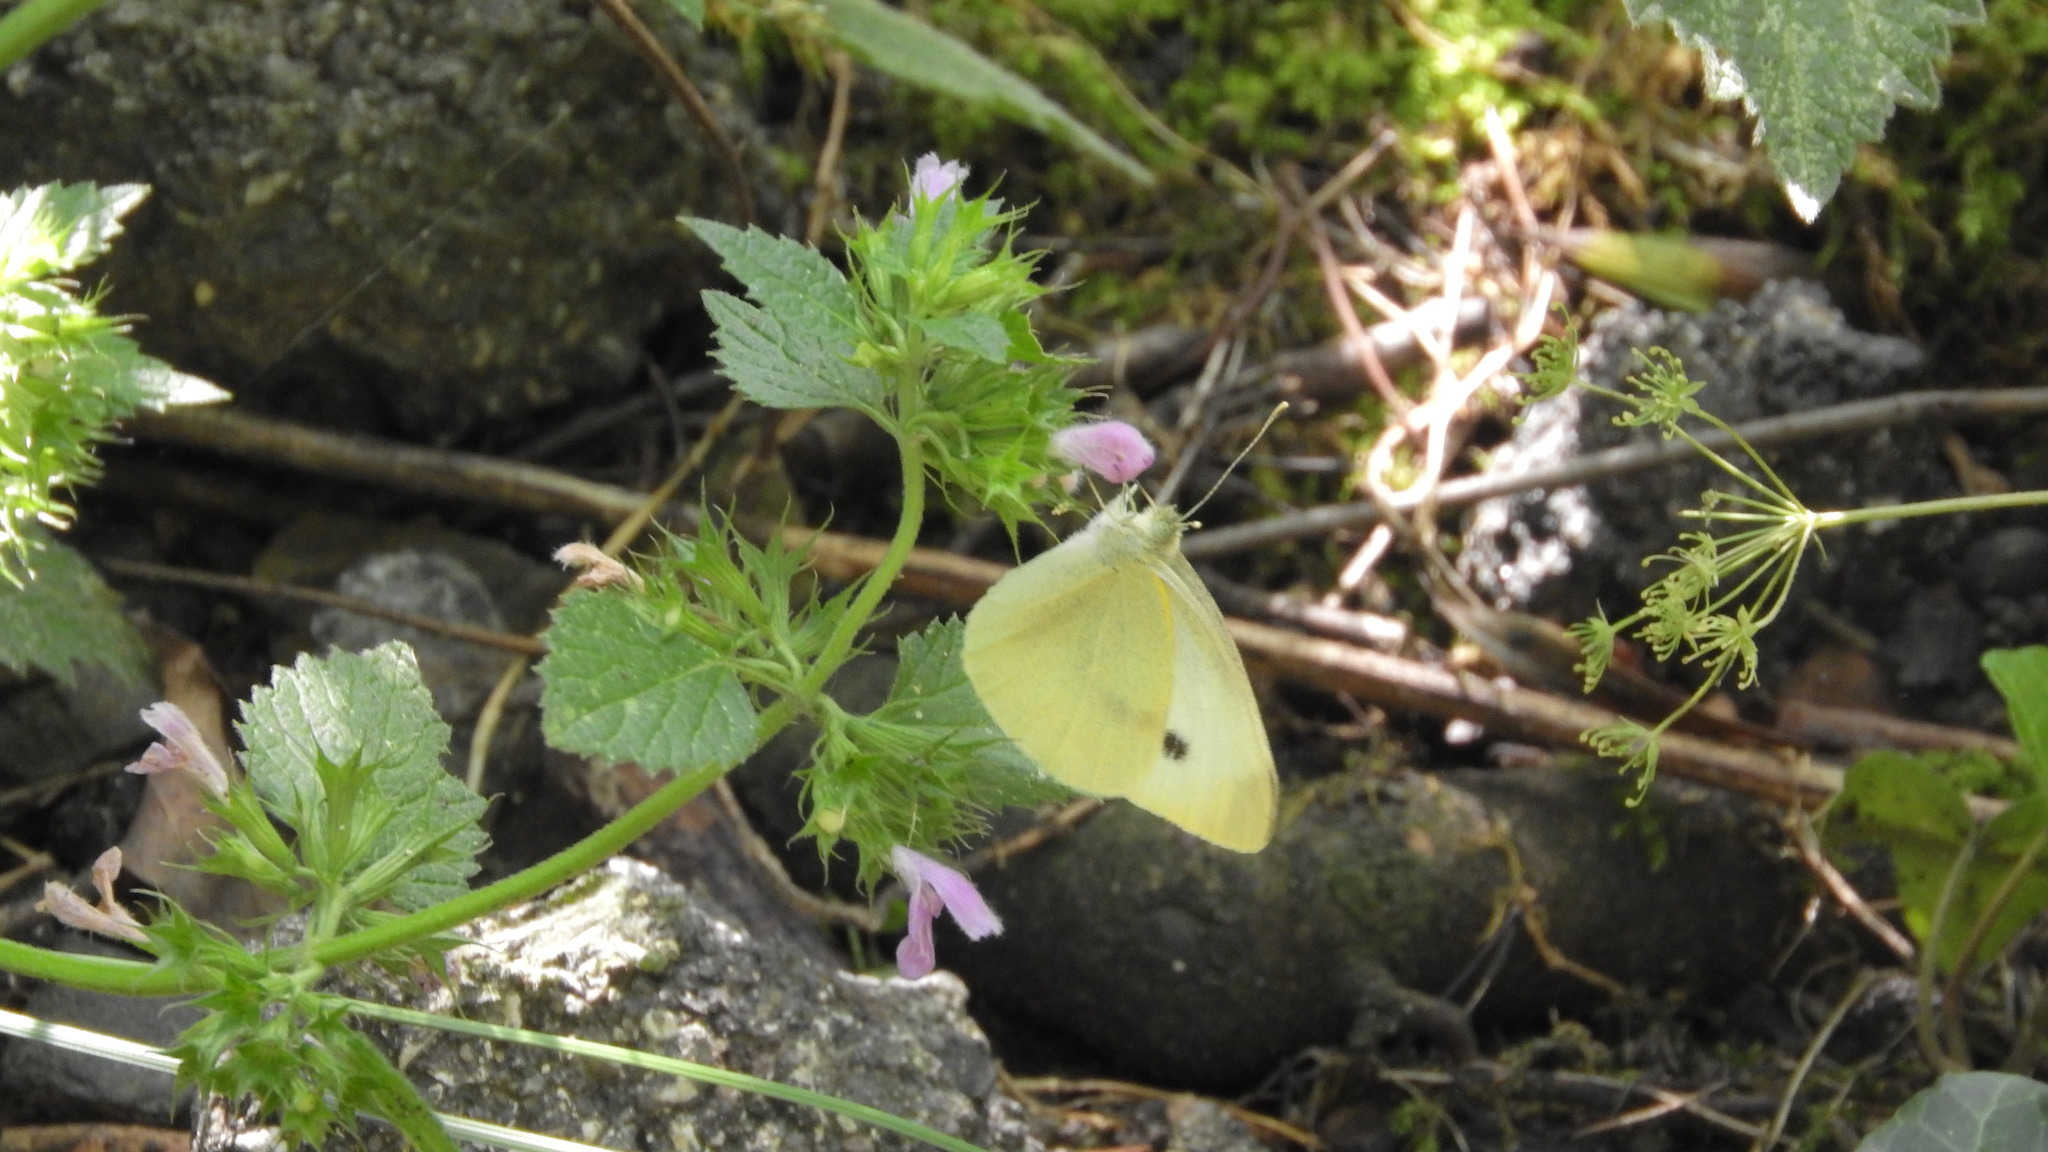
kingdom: Animalia
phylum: Arthropoda
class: Insecta
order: Lepidoptera
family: Pieridae
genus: Pieris
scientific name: Pieris rapae
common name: Small white
